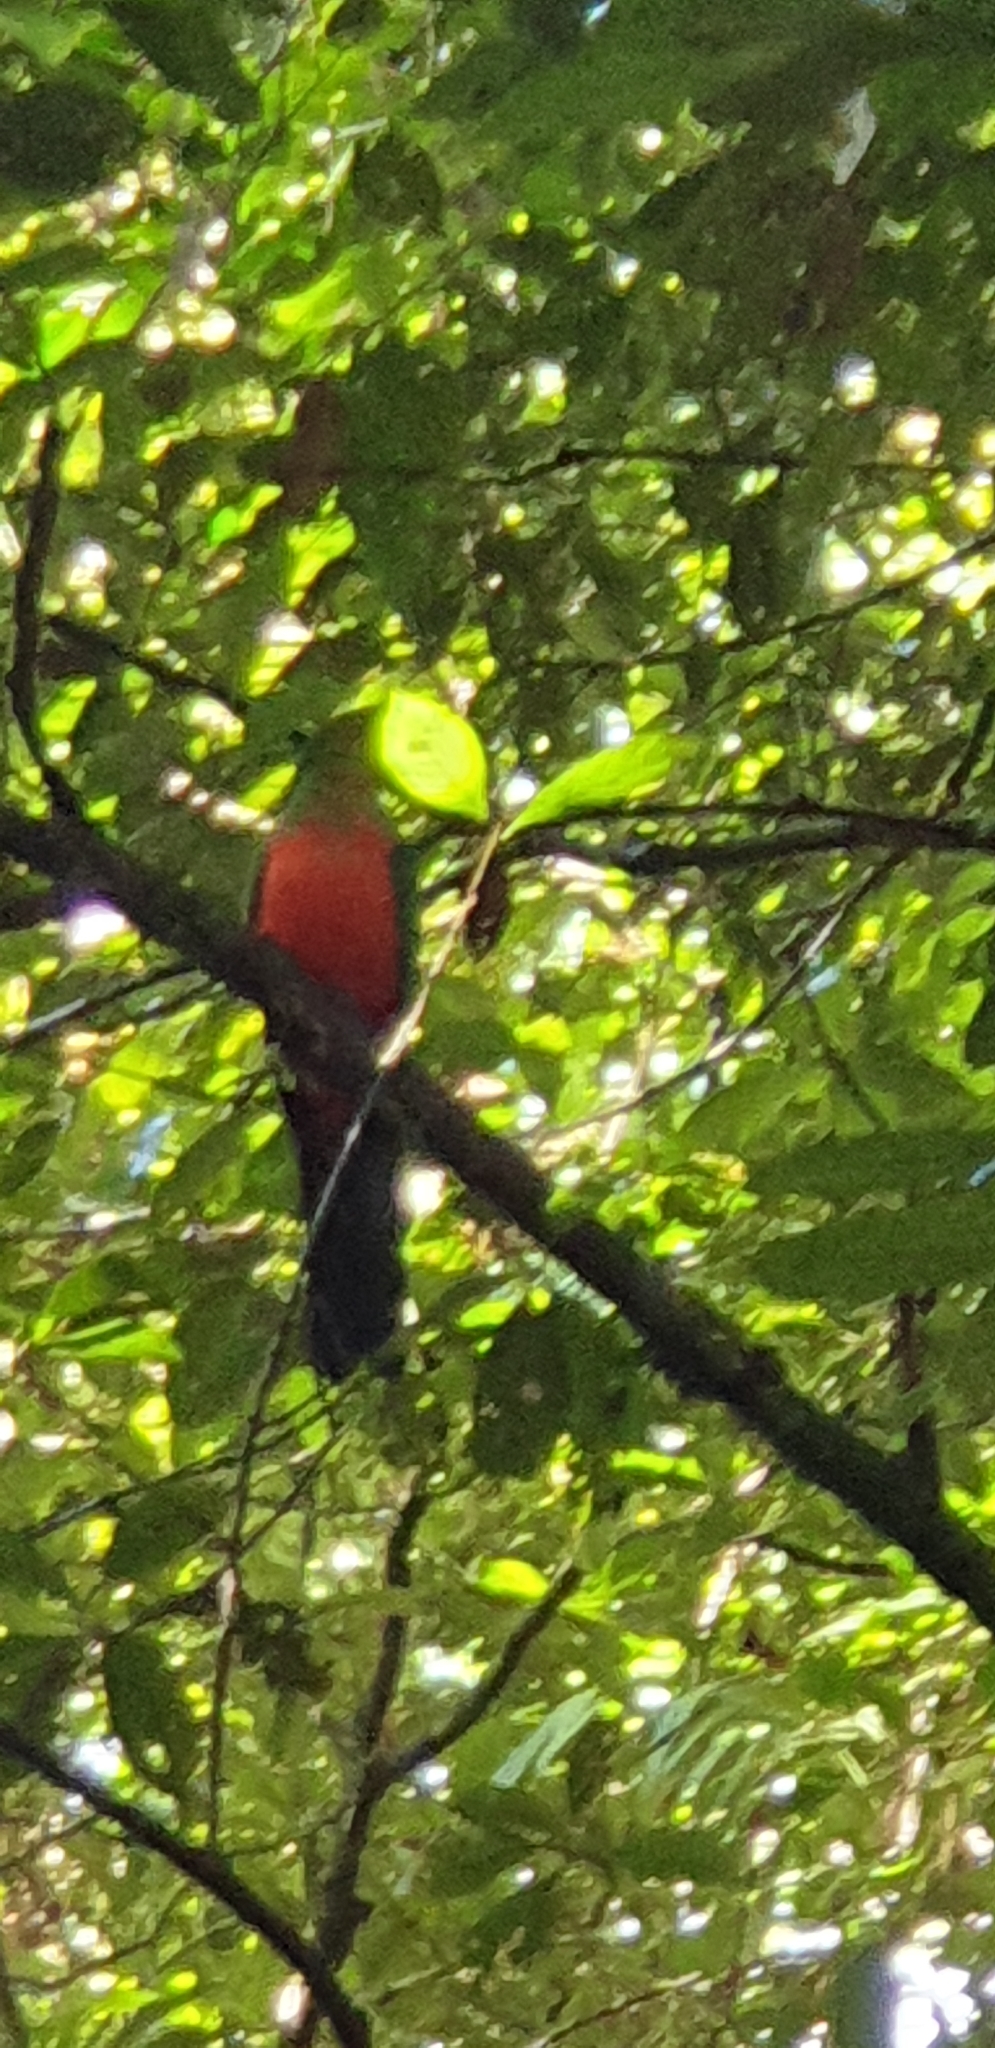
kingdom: Animalia
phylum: Chordata
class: Aves
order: Psittaciformes
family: Psittacidae
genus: Alisterus
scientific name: Alisterus scapularis
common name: Australian king parrot
